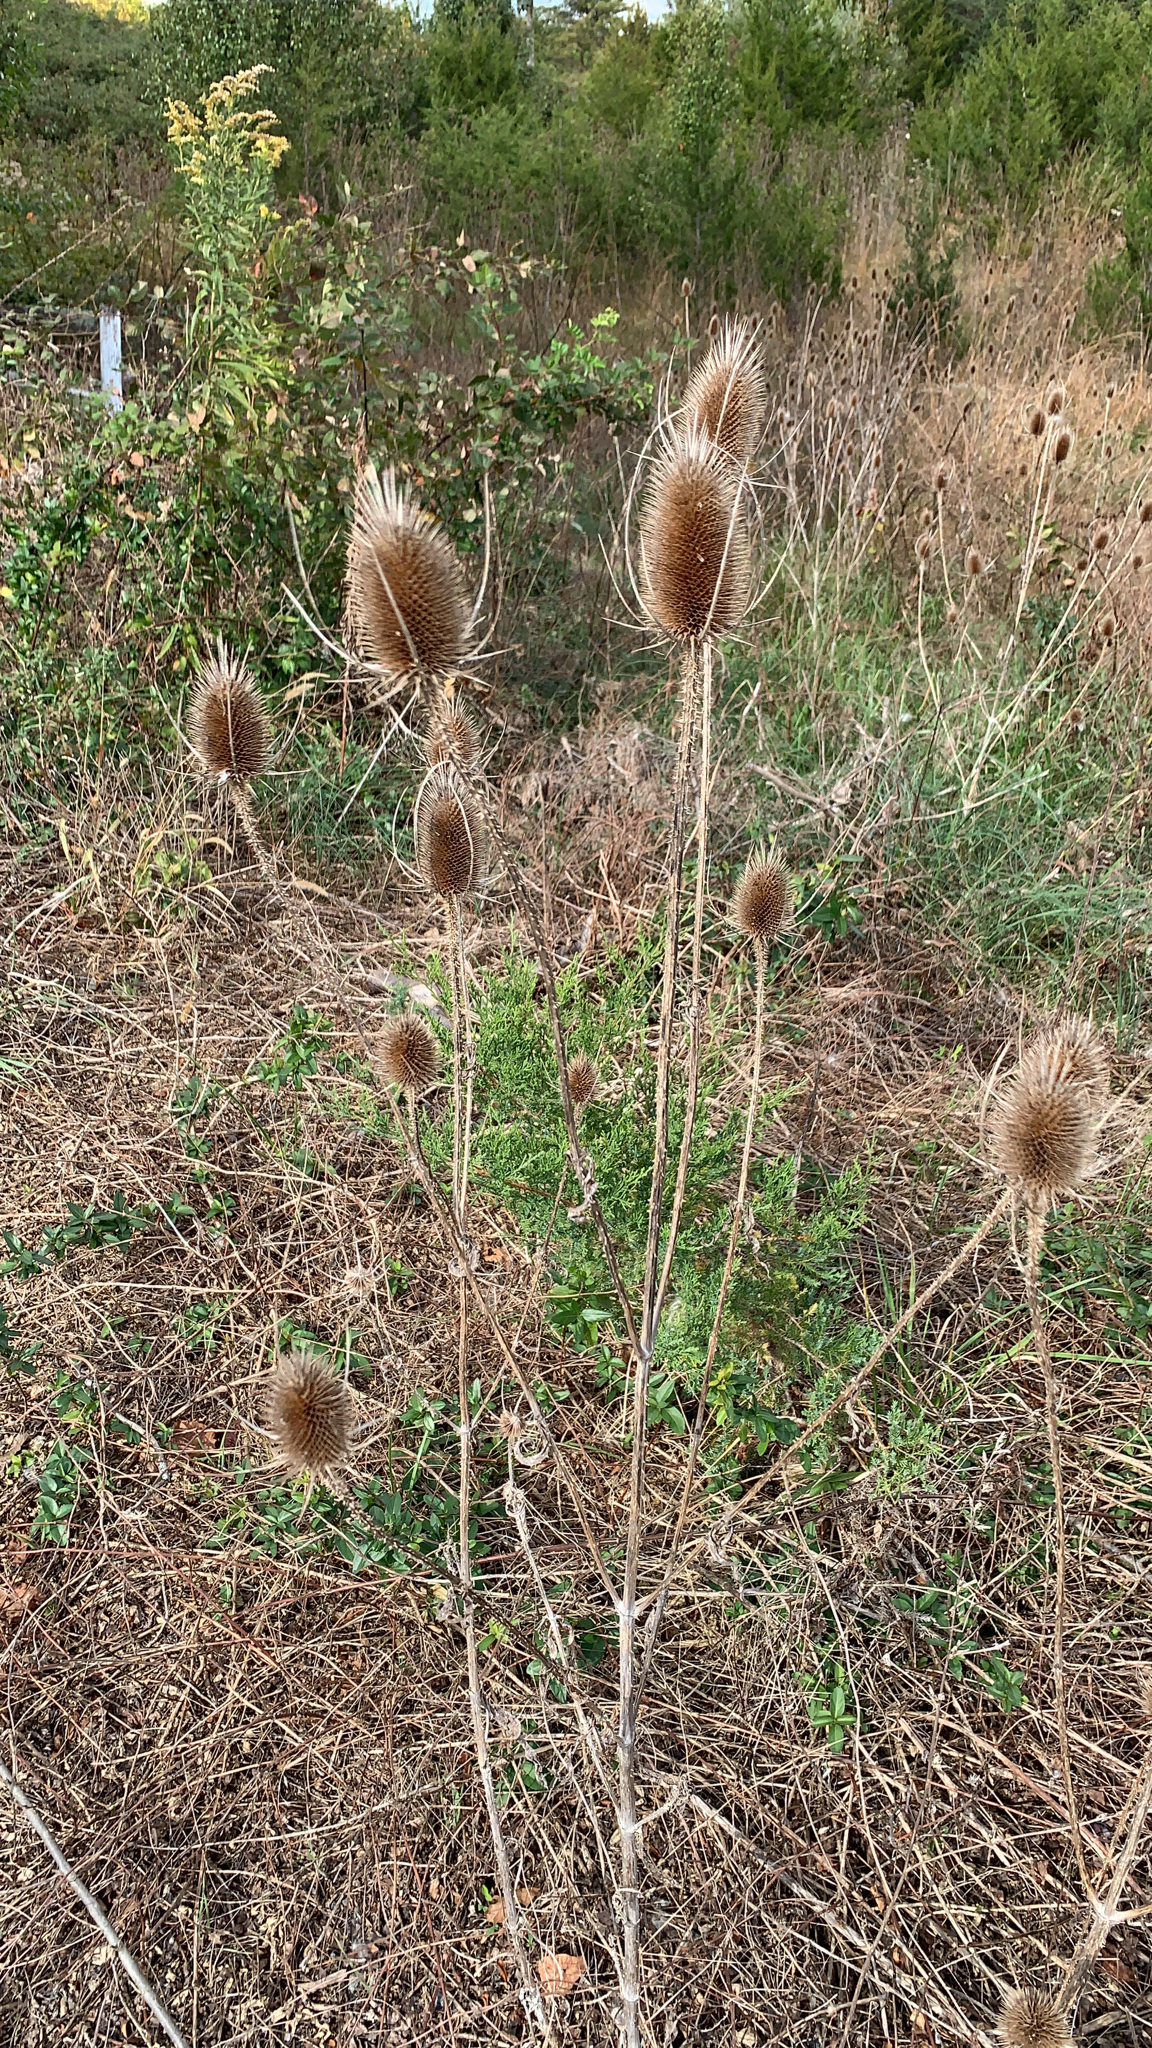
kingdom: Plantae
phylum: Tracheophyta
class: Magnoliopsida
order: Dipsacales
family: Caprifoliaceae
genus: Dipsacus
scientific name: Dipsacus fullonum
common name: Teasel
